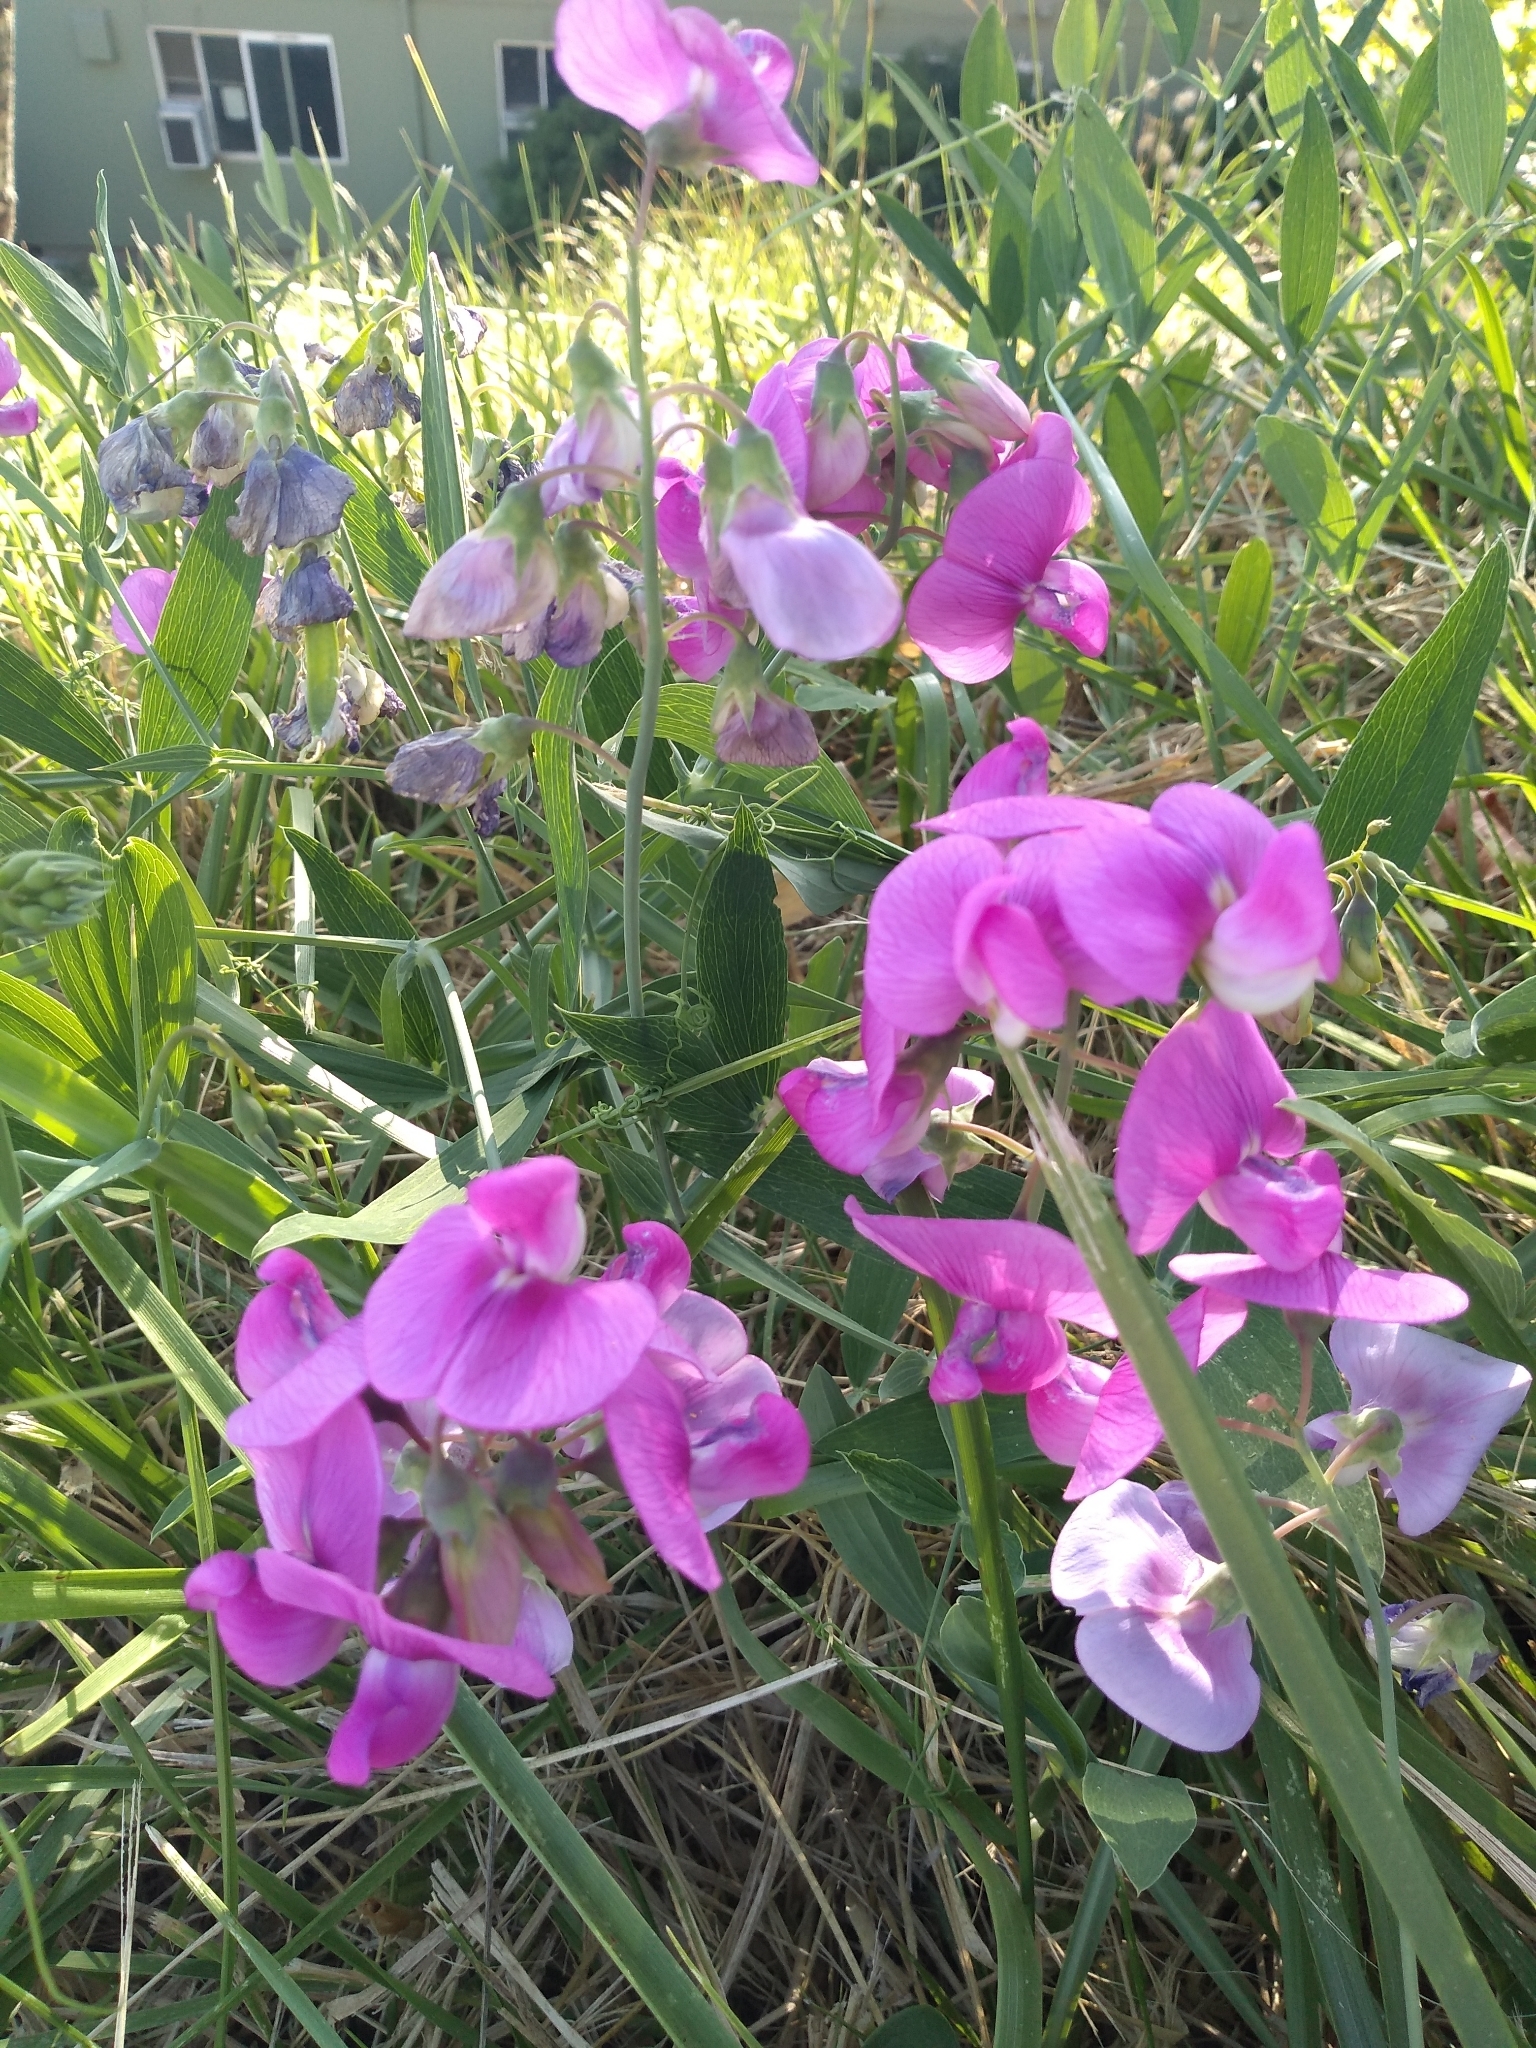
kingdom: Plantae
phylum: Tracheophyta
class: Magnoliopsida
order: Fabales
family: Fabaceae
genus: Lathyrus
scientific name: Lathyrus latifolius
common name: Perennial pea
